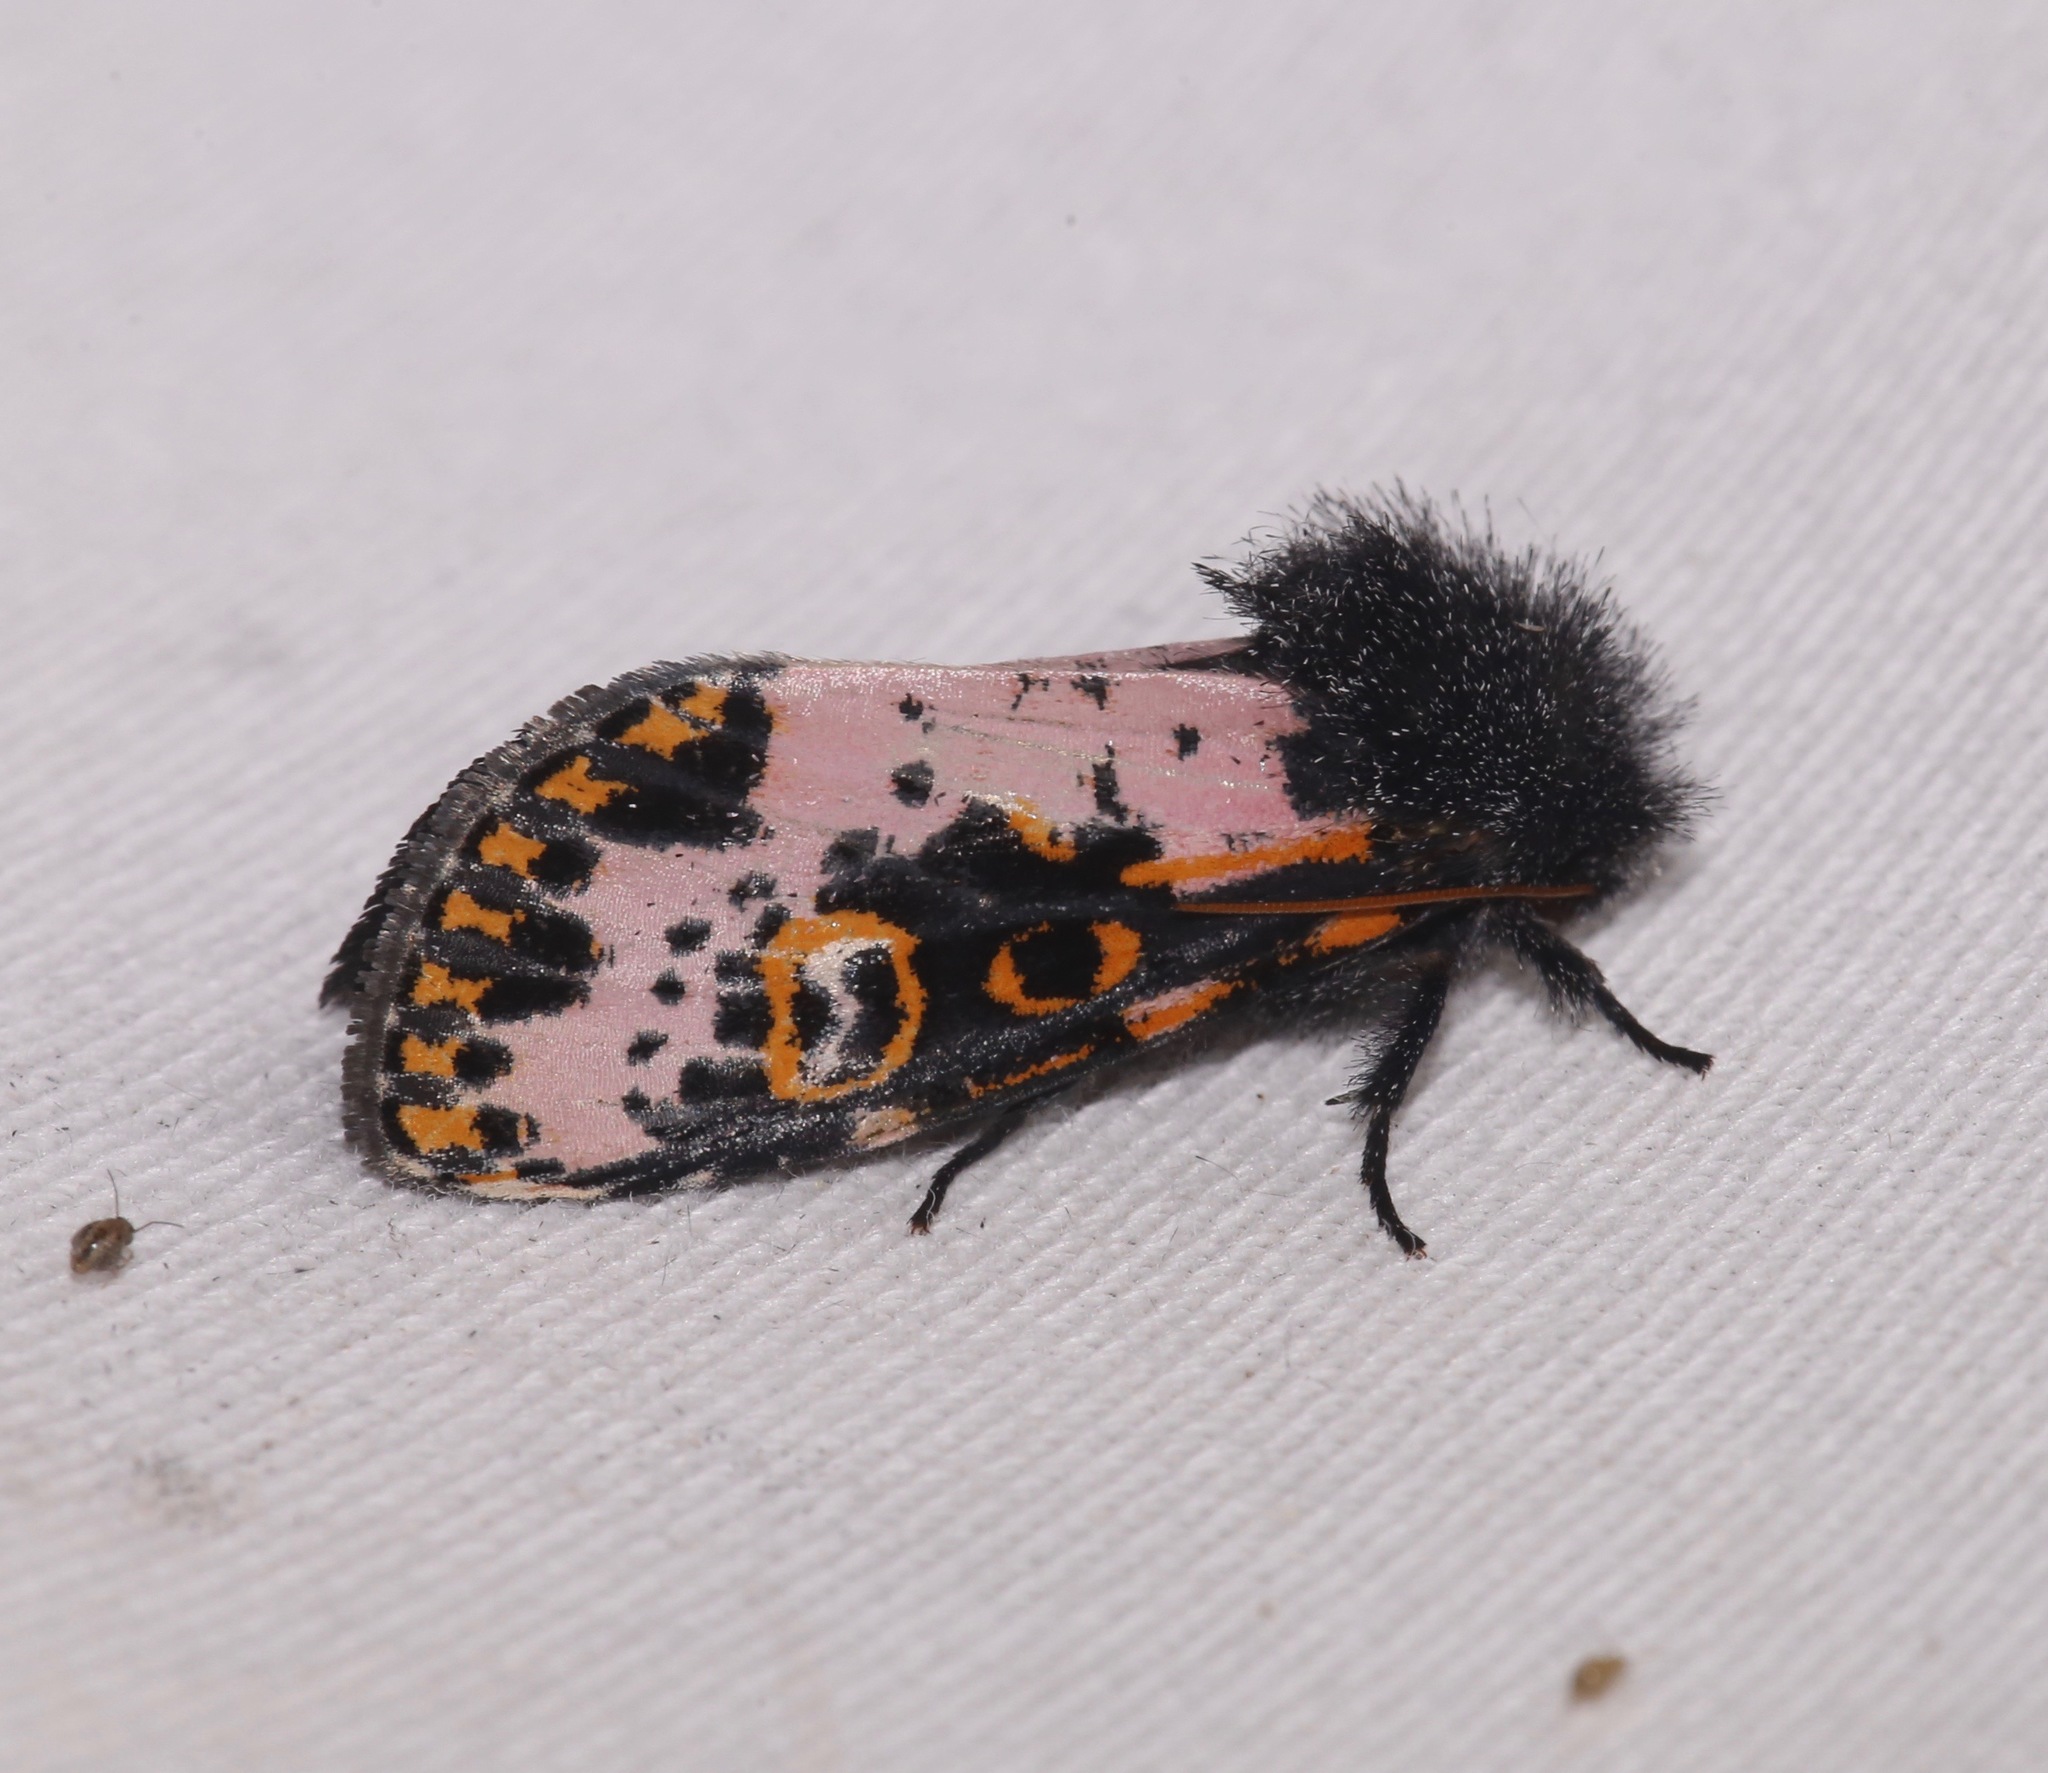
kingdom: Animalia
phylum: Arthropoda
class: Insecta
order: Lepidoptera
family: Noctuidae
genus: Xanthopastis
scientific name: Xanthopastis regnatrix
